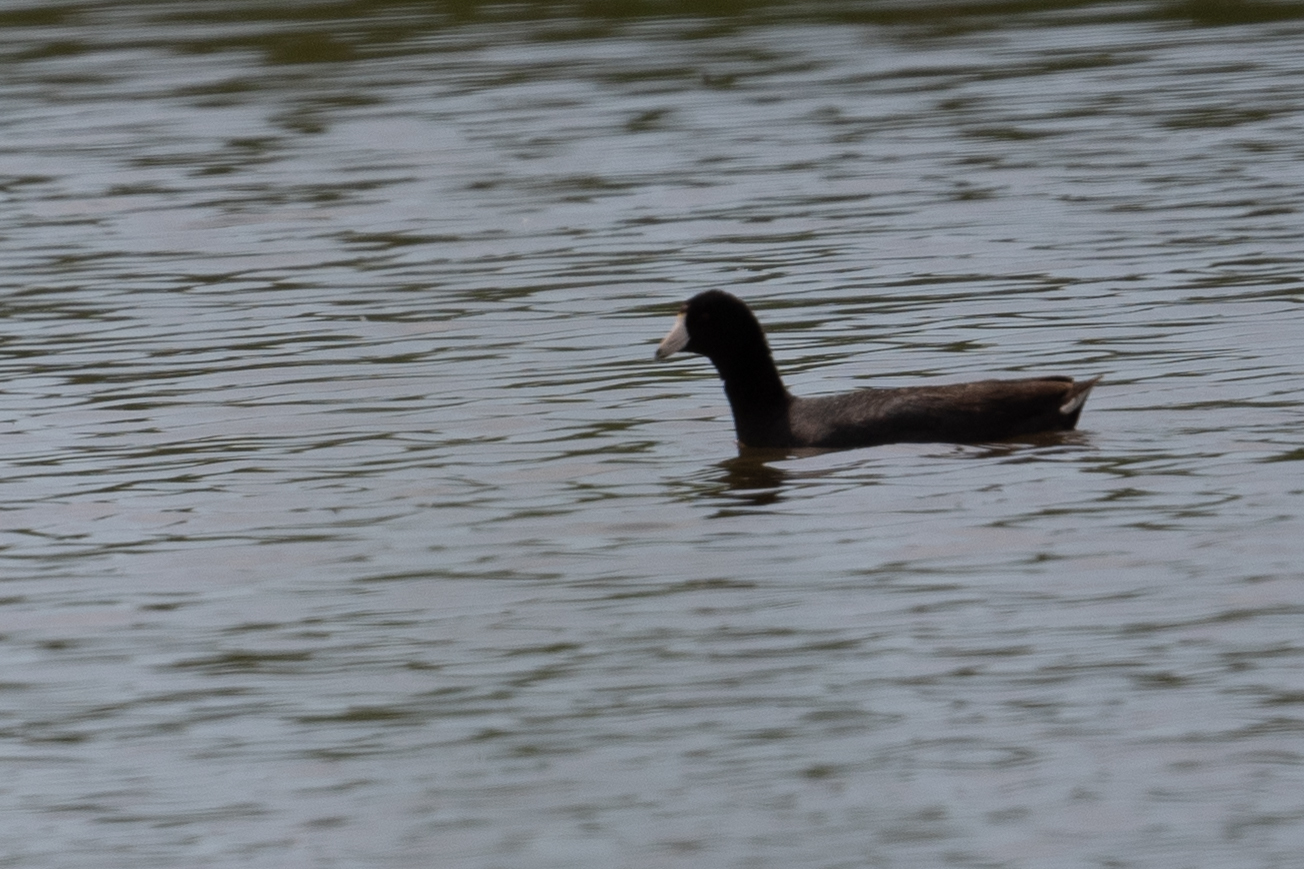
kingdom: Animalia
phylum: Chordata
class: Aves
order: Gruiformes
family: Rallidae
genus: Fulica
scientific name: Fulica americana
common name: American coot
